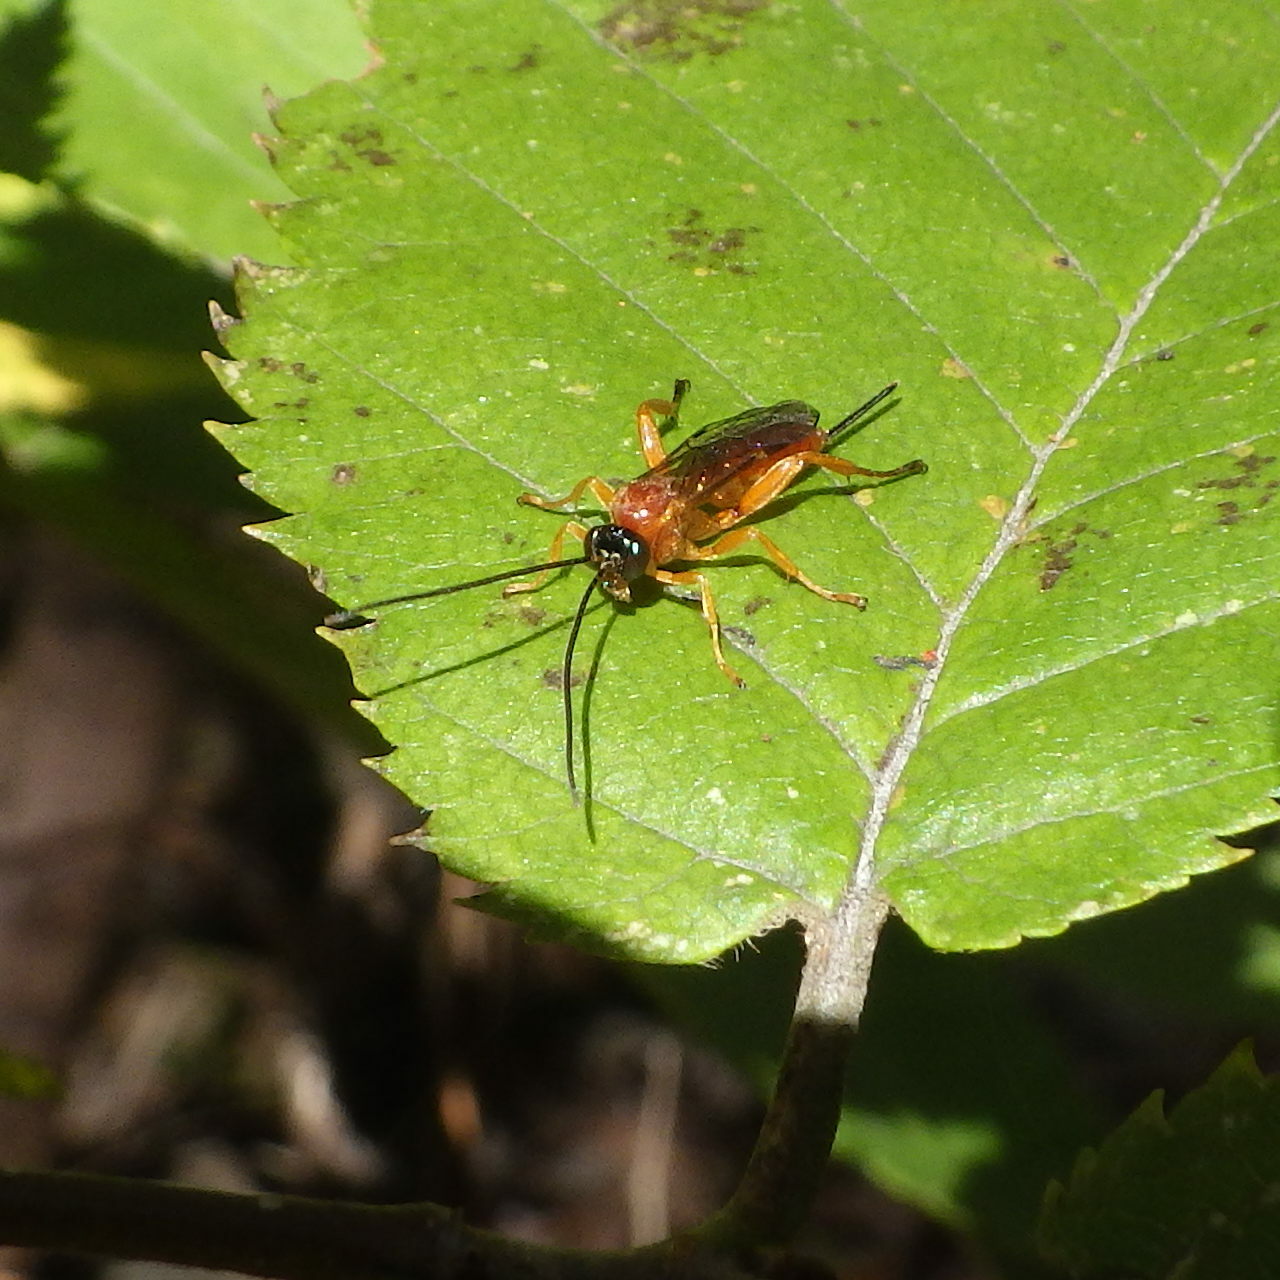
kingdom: Animalia
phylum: Arthropoda
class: Insecta
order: Hymenoptera
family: Ichneumonidae
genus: Theronia
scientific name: Theronia hilaris
